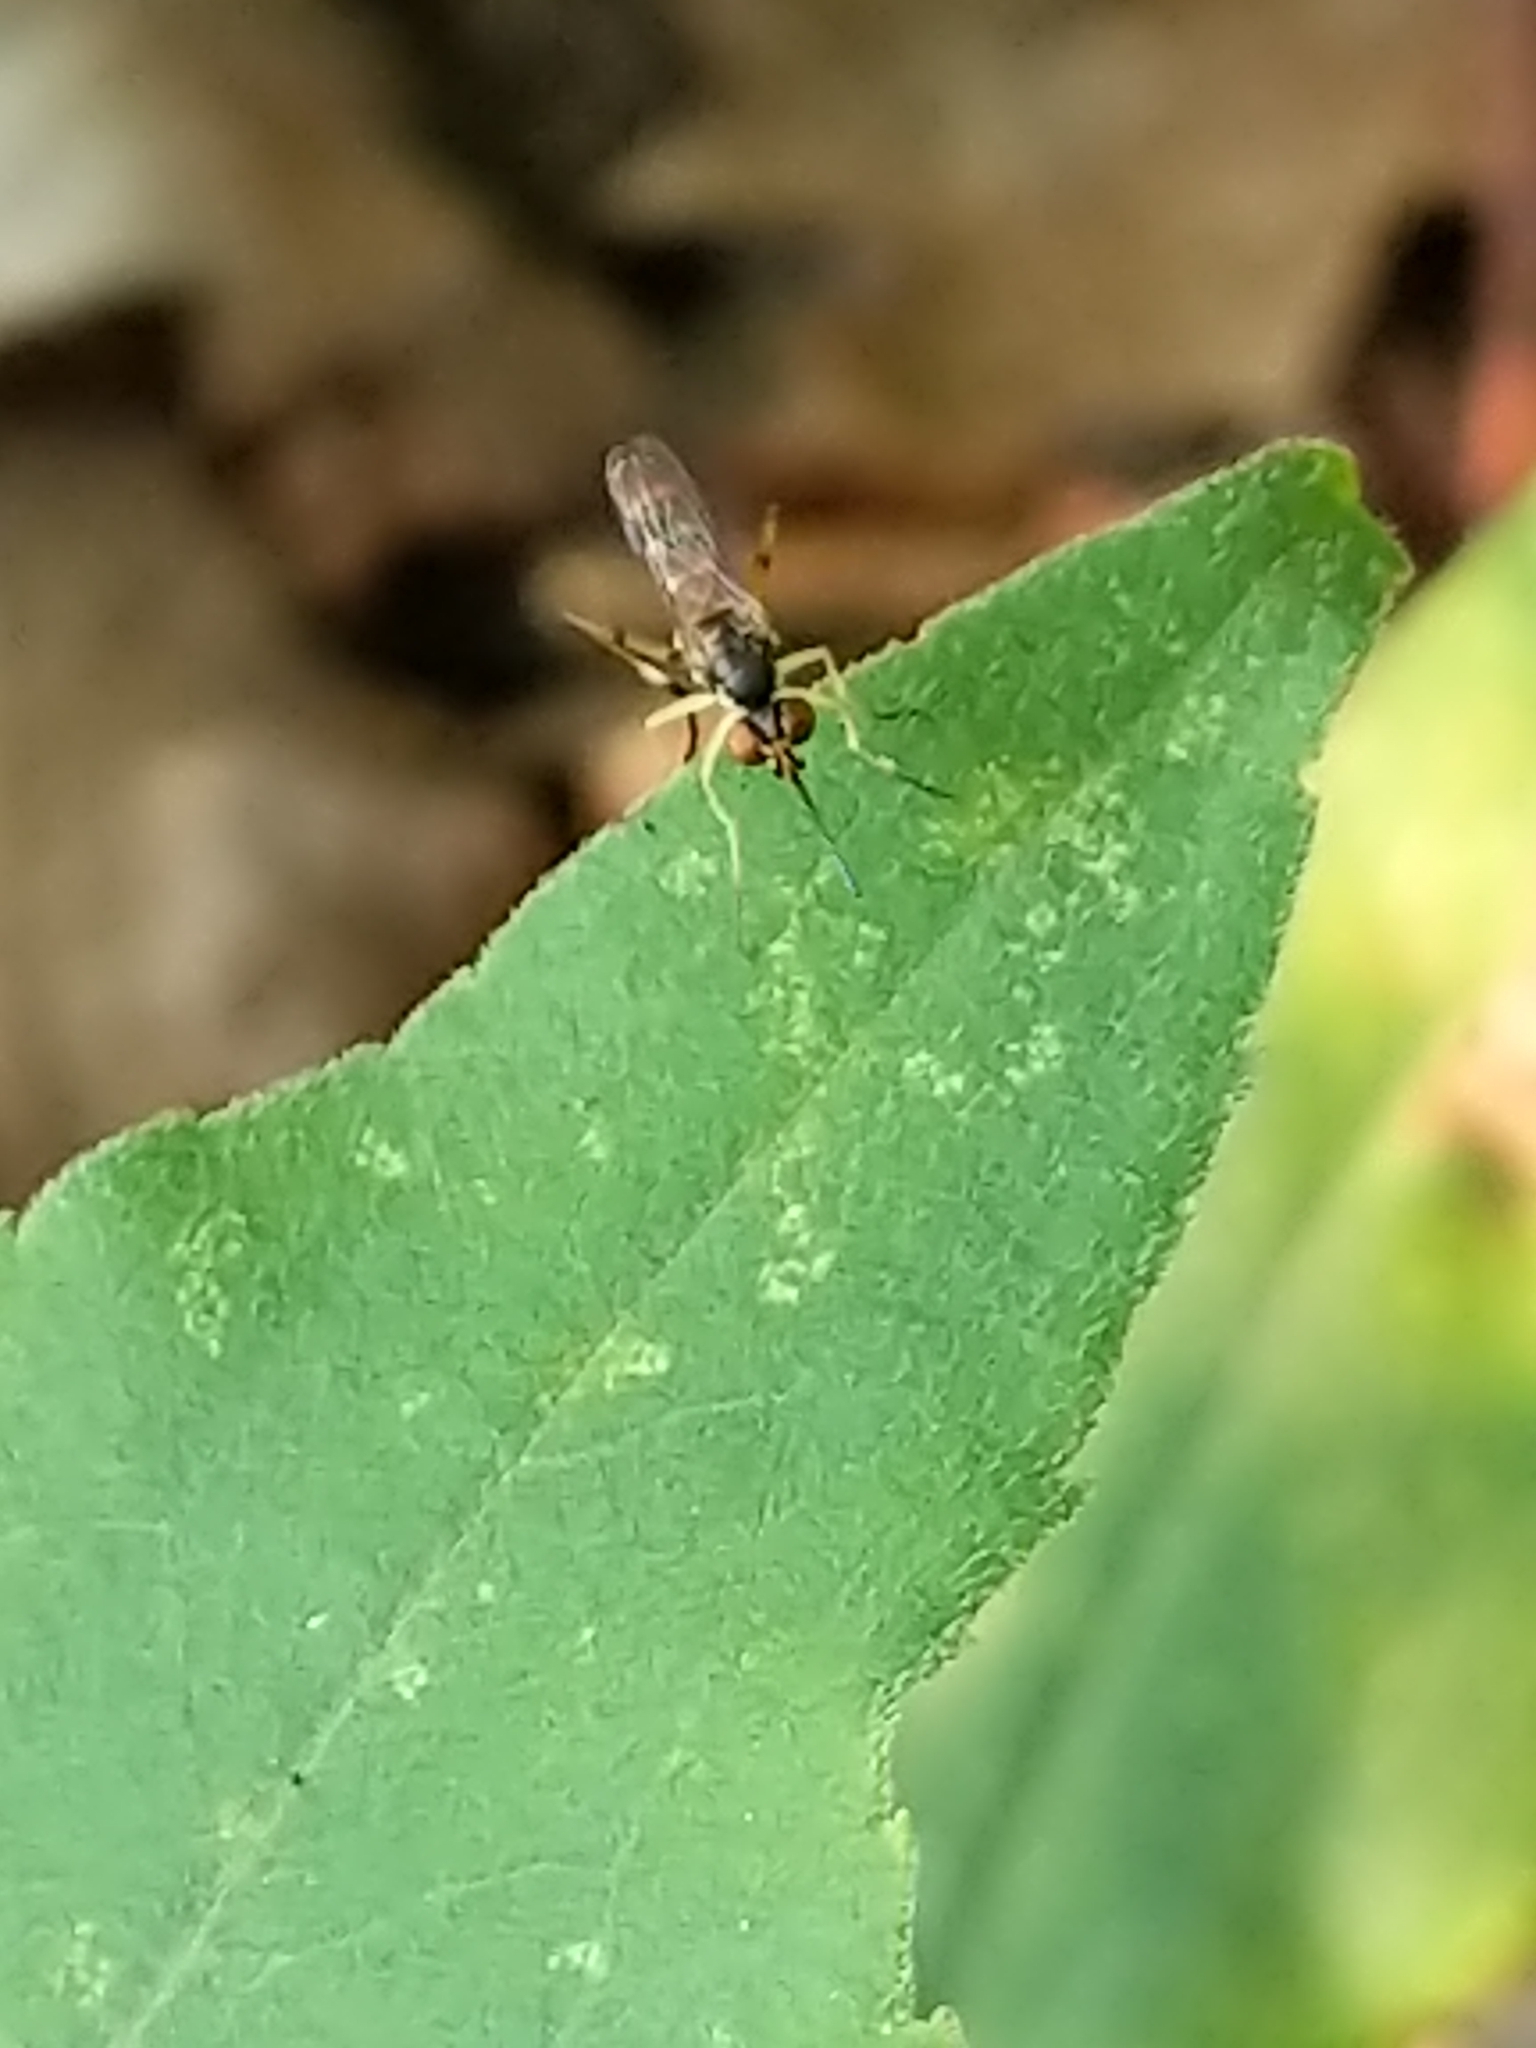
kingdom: Animalia
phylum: Arthropoda
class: Insecta
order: Diptera
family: Conopidae
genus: Stylogaster
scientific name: Stylogaster neglecta
